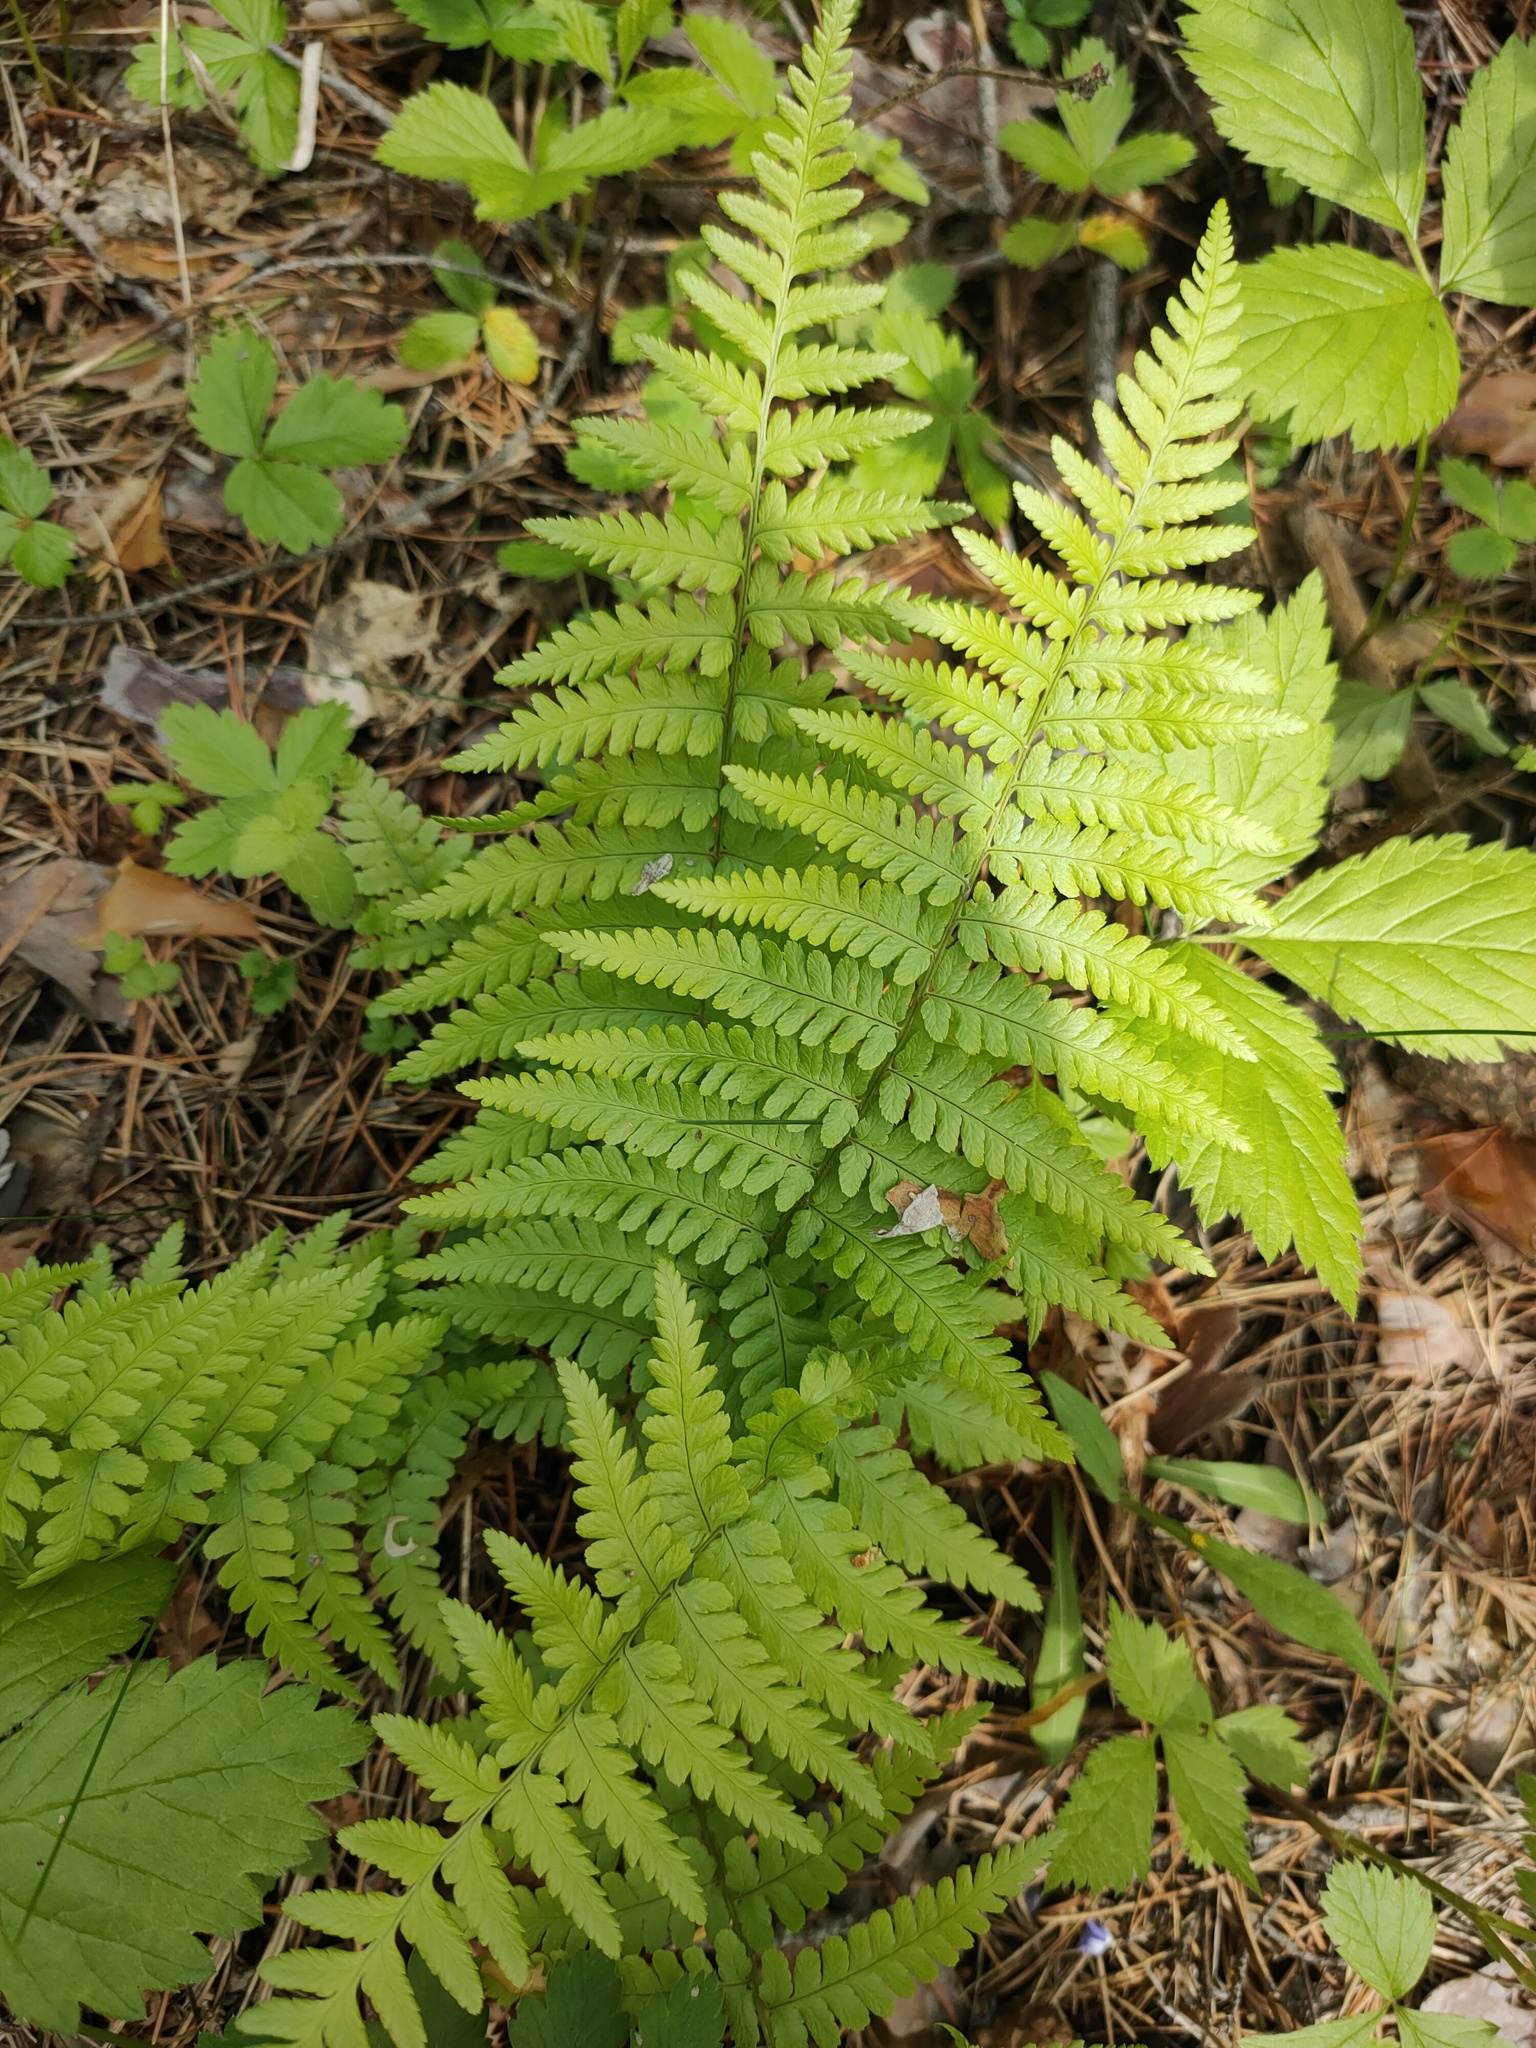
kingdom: Plantae
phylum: Tracheophyta
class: Polypodiopsida
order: Polypodiales
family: Dryopteridaceae
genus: Dryopteris
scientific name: Dryopteris filix-mas
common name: Male fern
